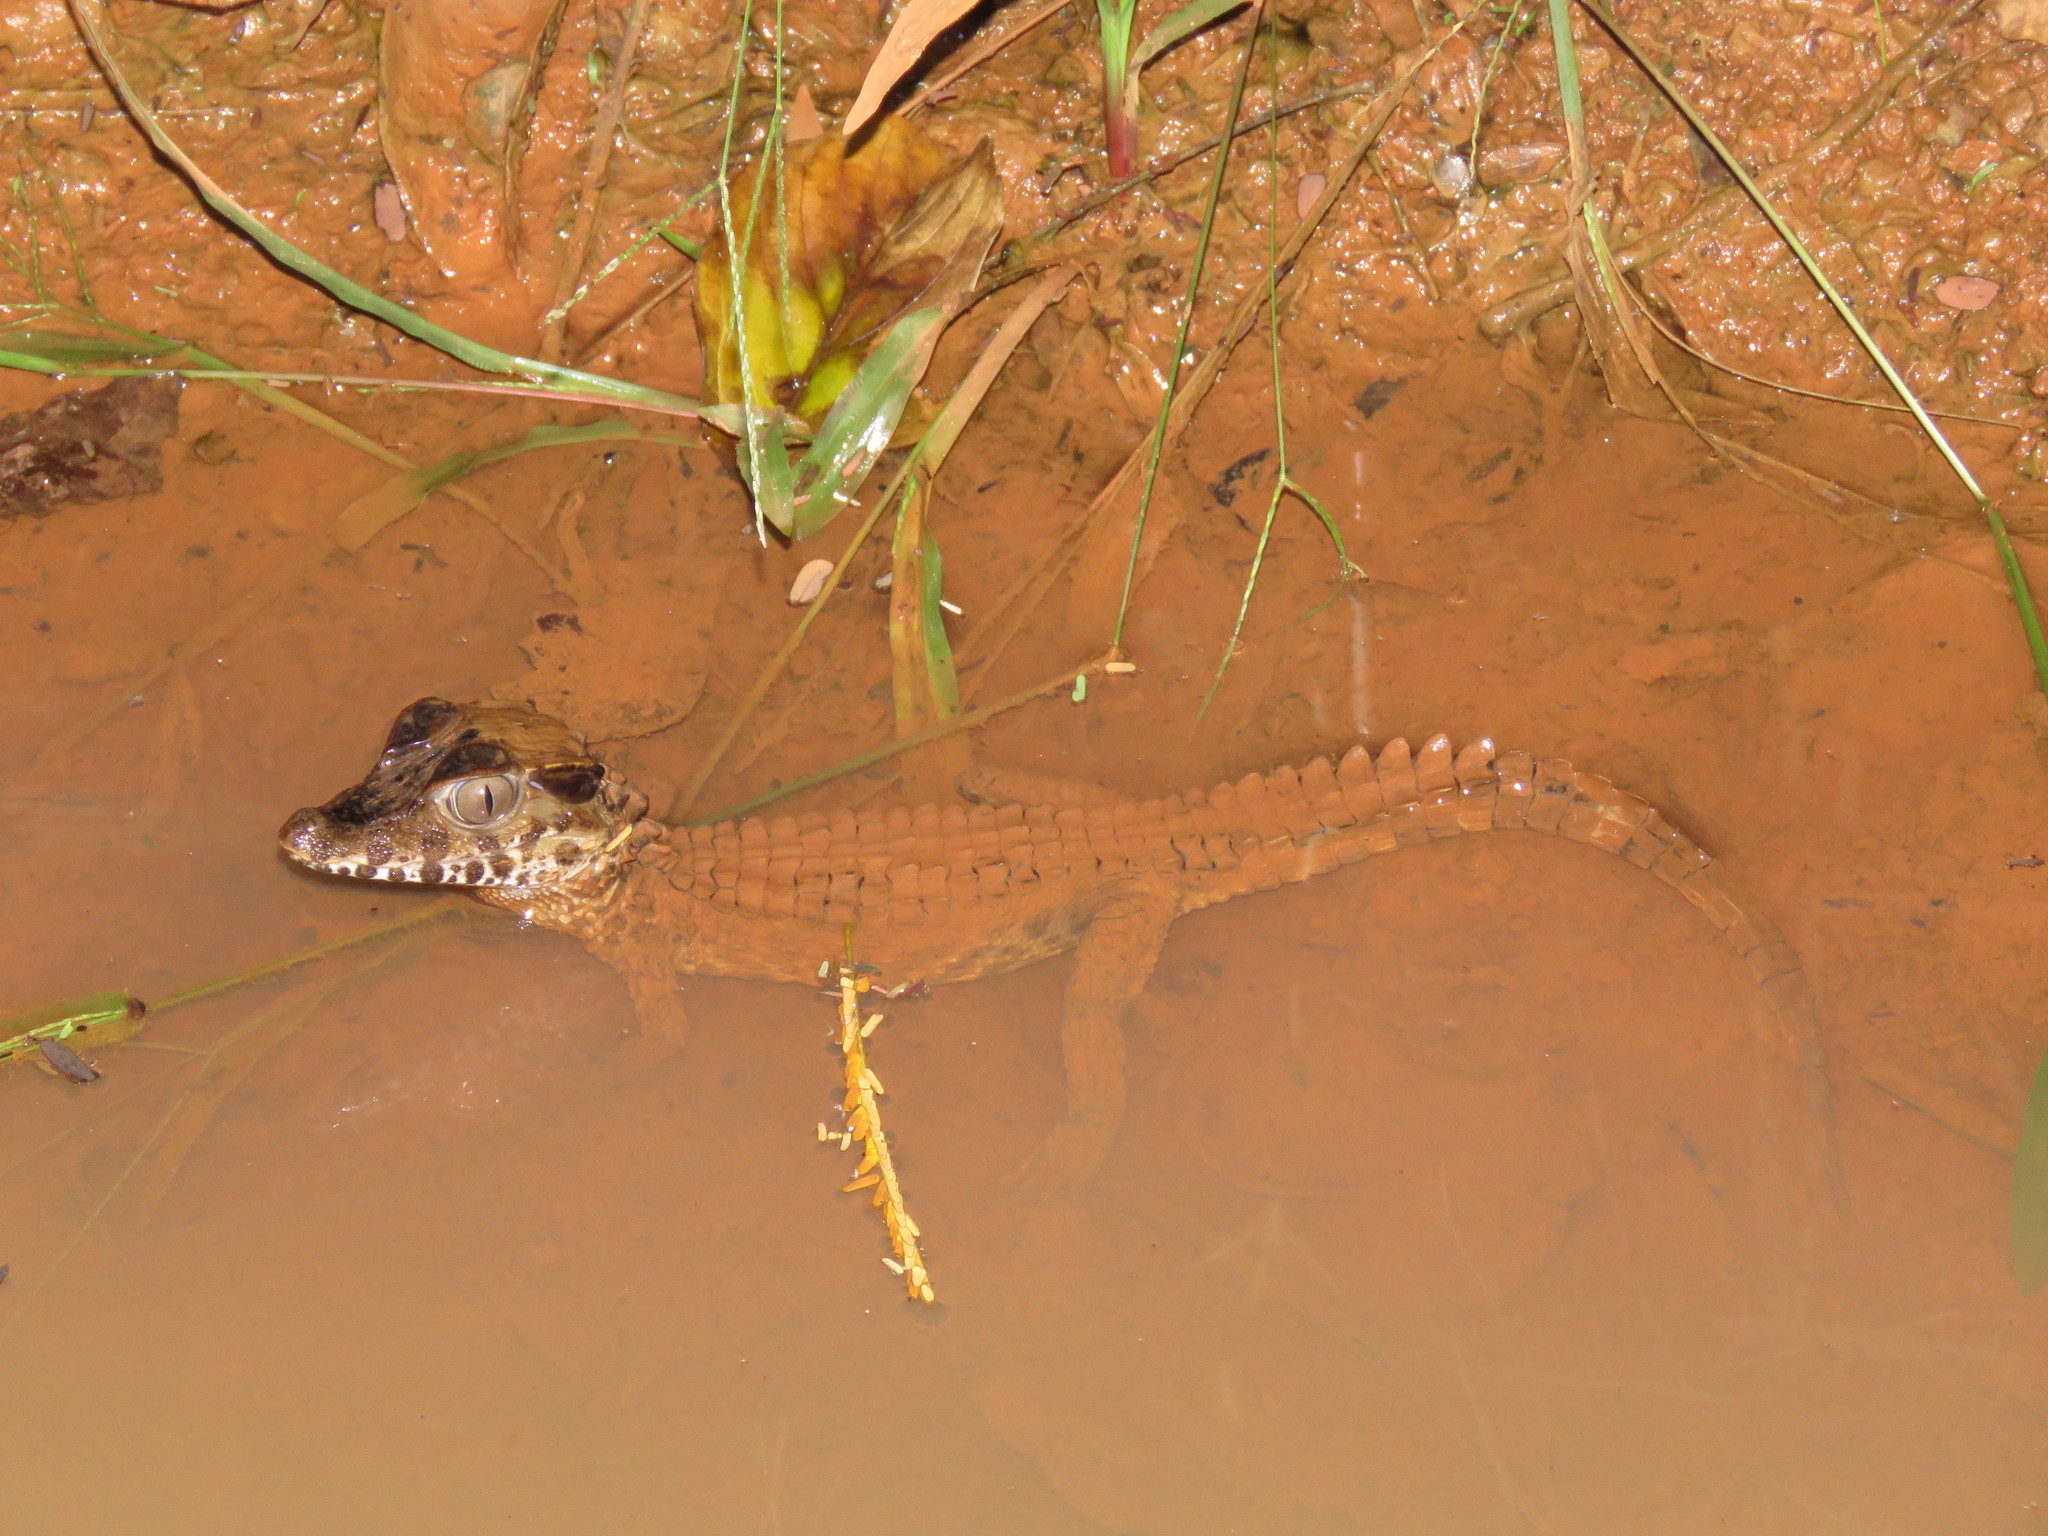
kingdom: Animalia
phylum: Chordata
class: Crocodylia
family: Alligatoridae
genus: Paleosuchus
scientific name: Paleosuchus palpebrosus
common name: Cuvier's smooth-fronted caiman
